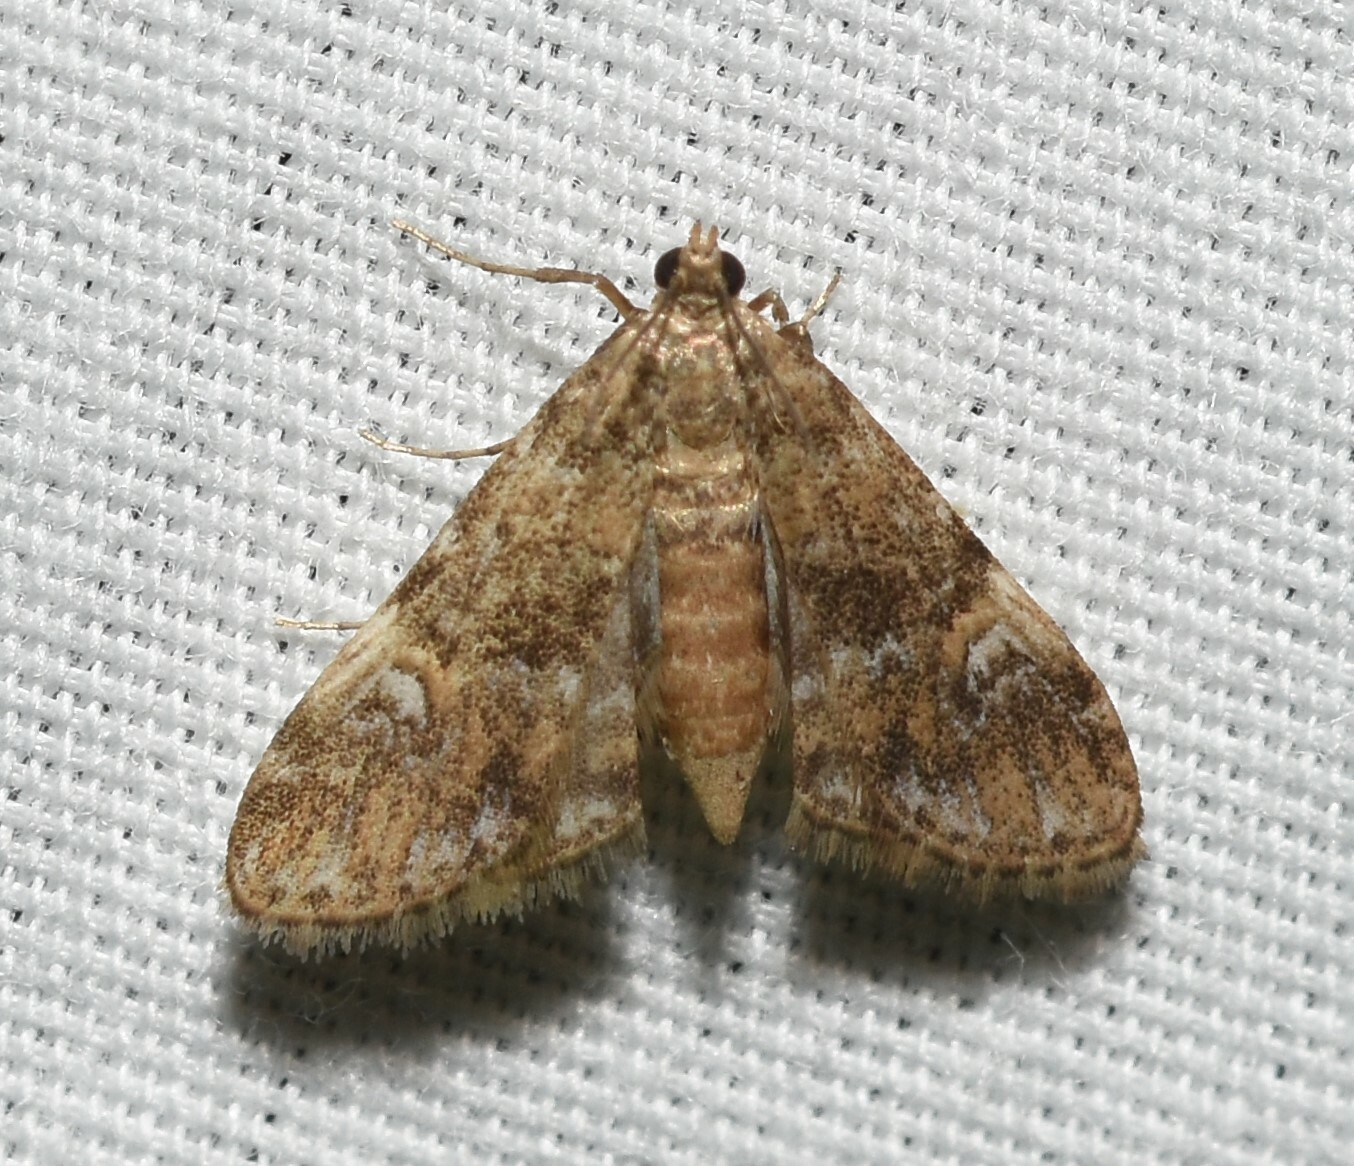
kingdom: Animalia
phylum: Arthropoda
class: Insecta
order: Lepidoptera
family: Crambidae
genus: Elophila
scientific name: Elophila obliteralis
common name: Waterlily leafcutter moth
